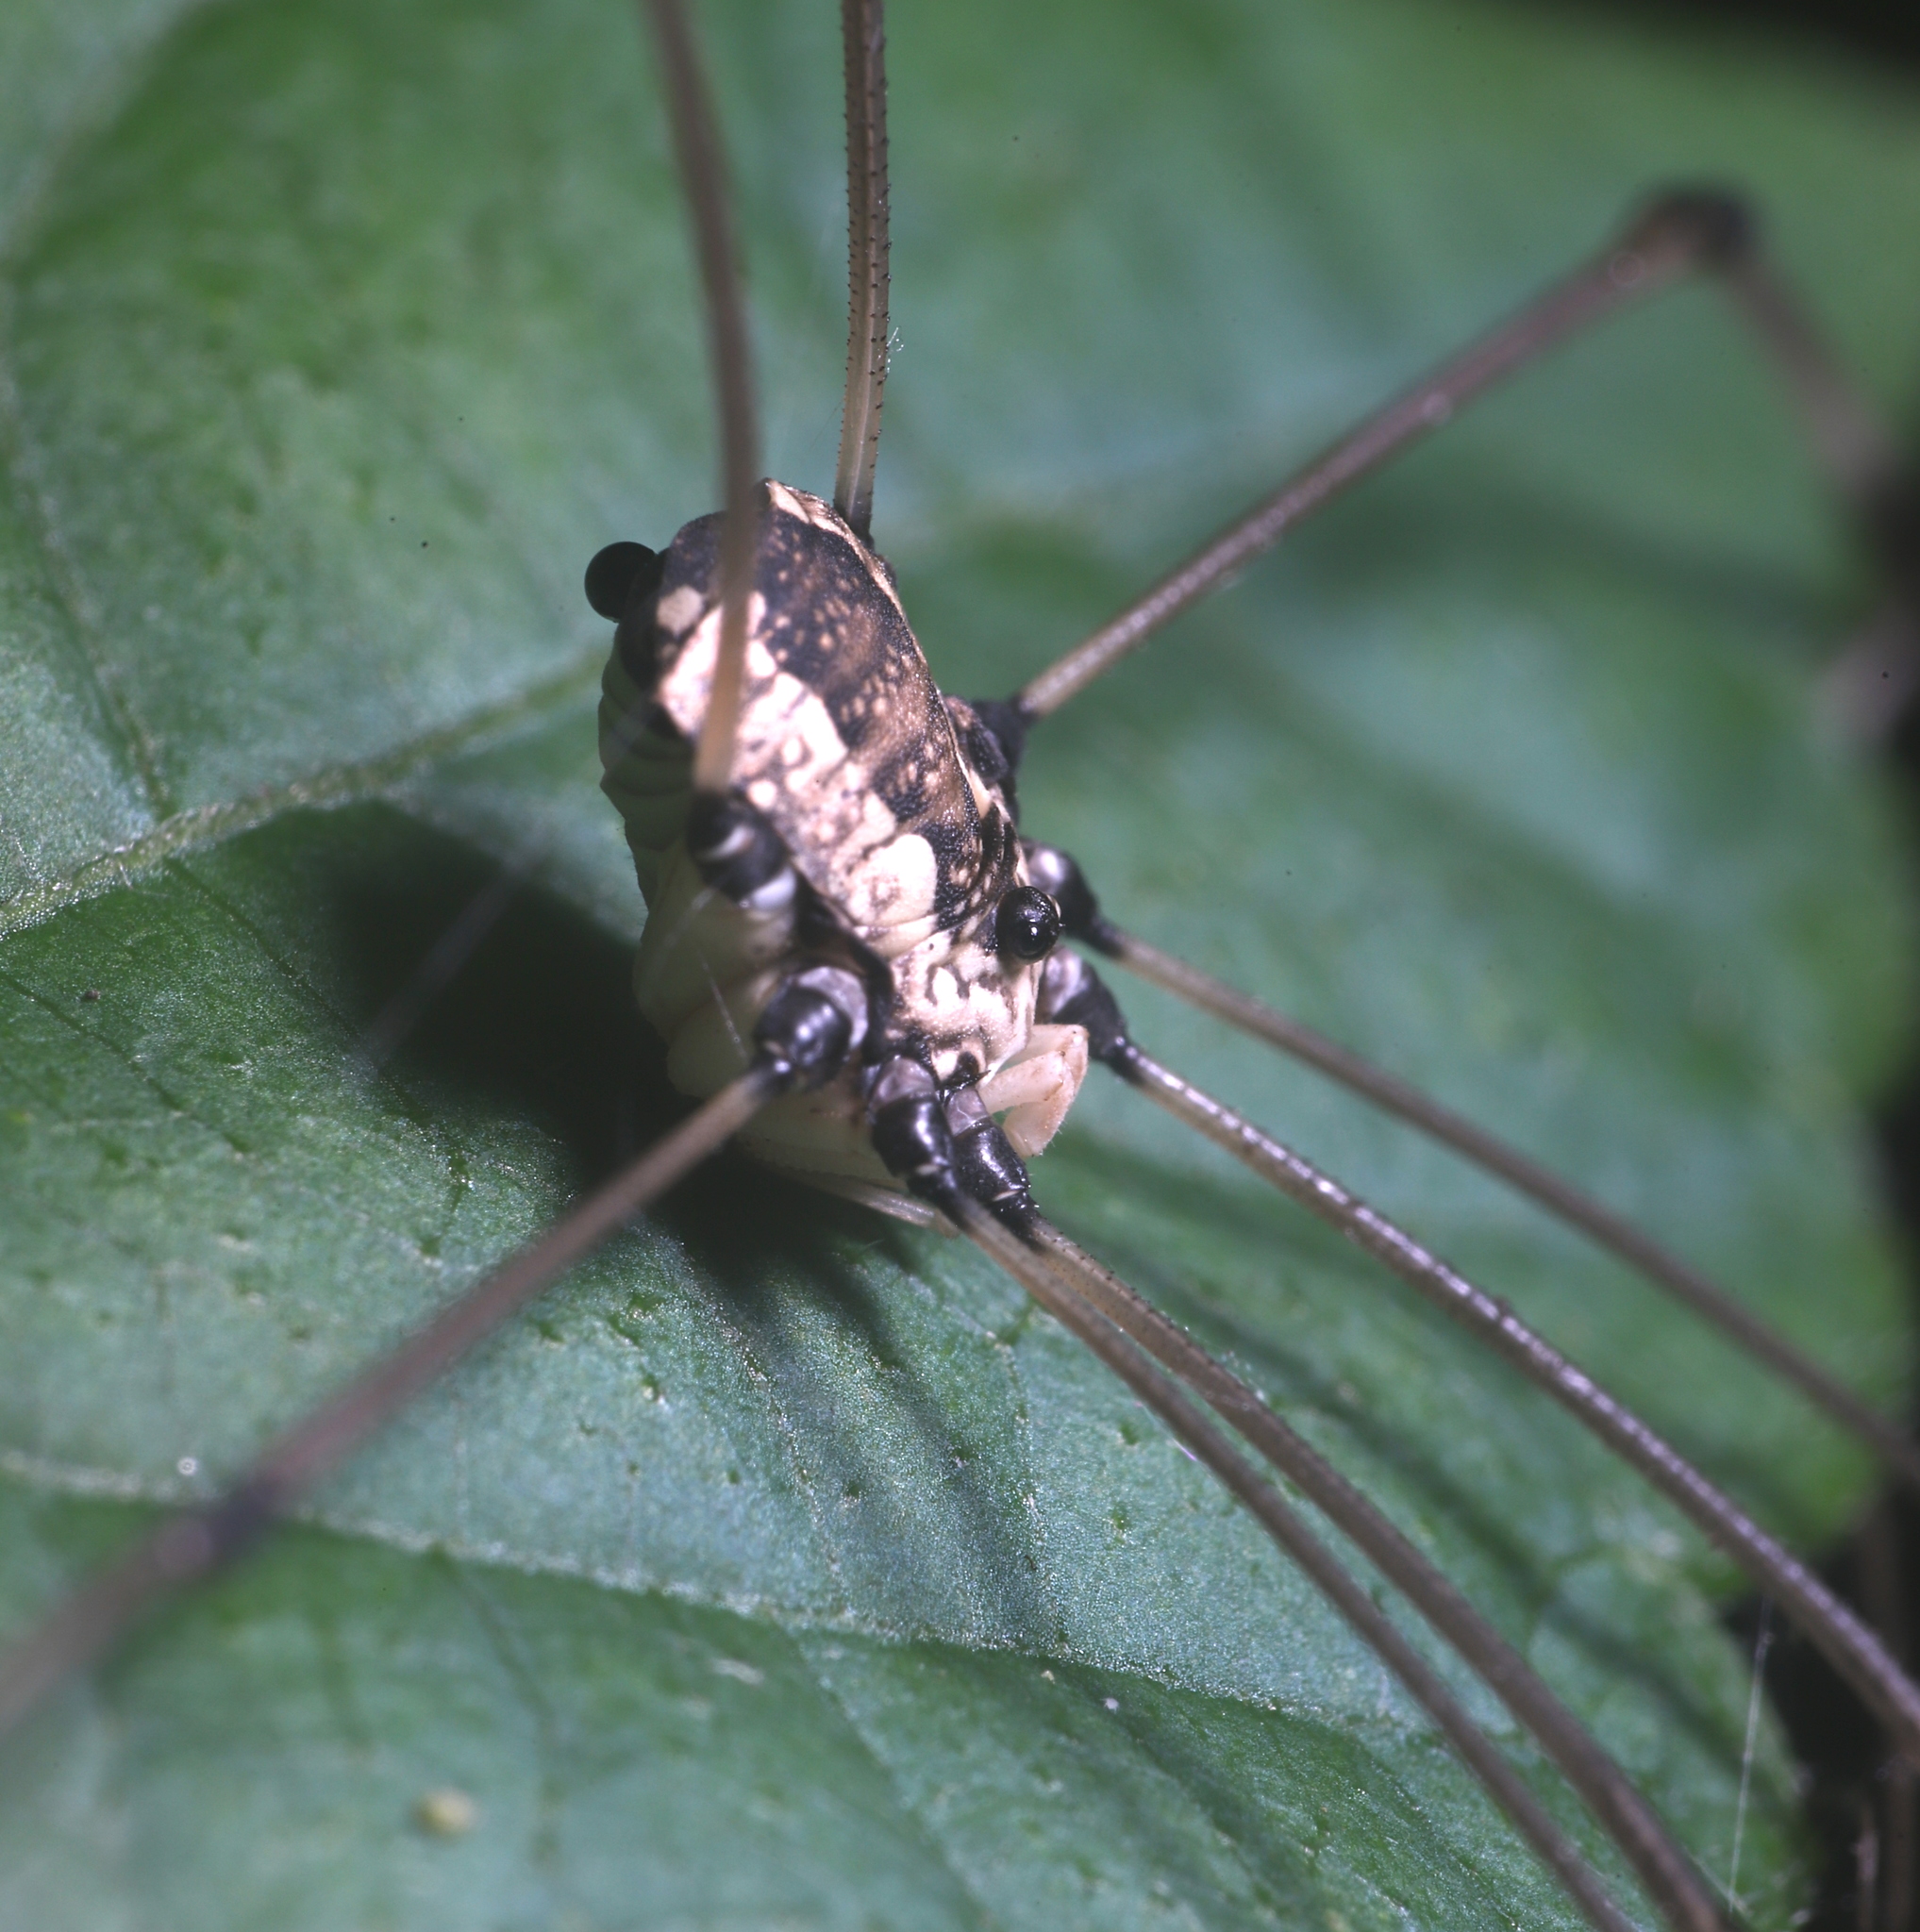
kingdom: Animalia
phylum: Arthropoda
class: Arachnida
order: Opiliones
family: Sclerosomatidae
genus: Leiobunum
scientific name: Leiobunum vittatum
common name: Eastern harvestman
